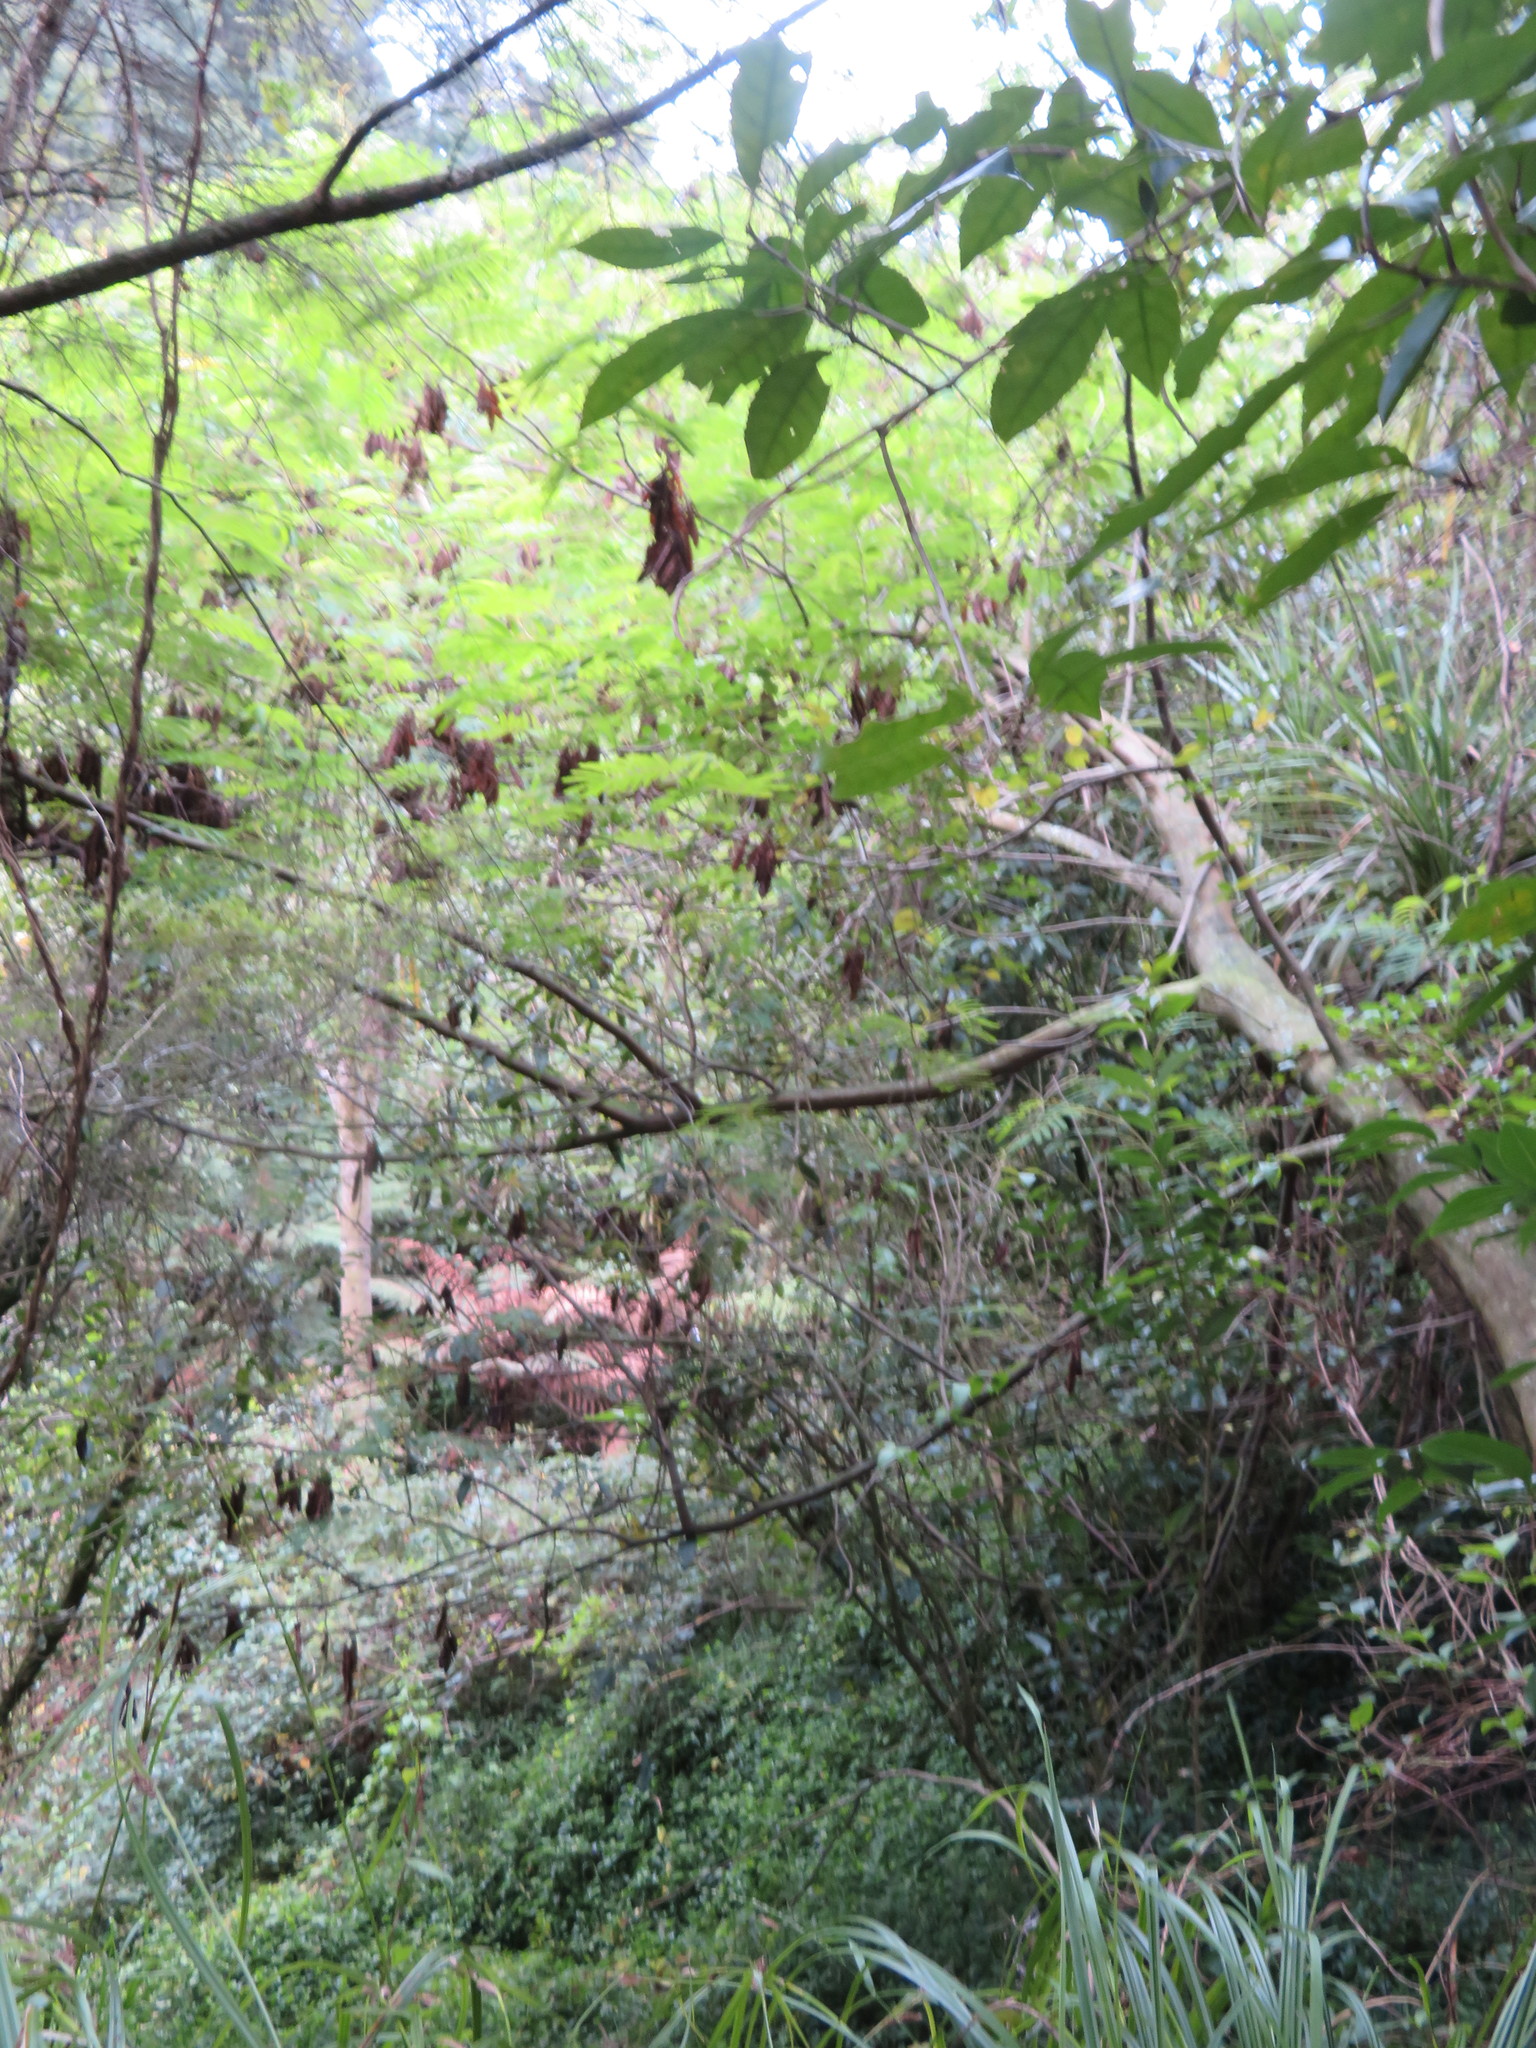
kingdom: Plantae
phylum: Tracheophyta
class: Magnoliopsida
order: Fabales
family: Fabaceae
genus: Paraserianthes
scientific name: Paraserianthes lophantha
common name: Plume albizia
